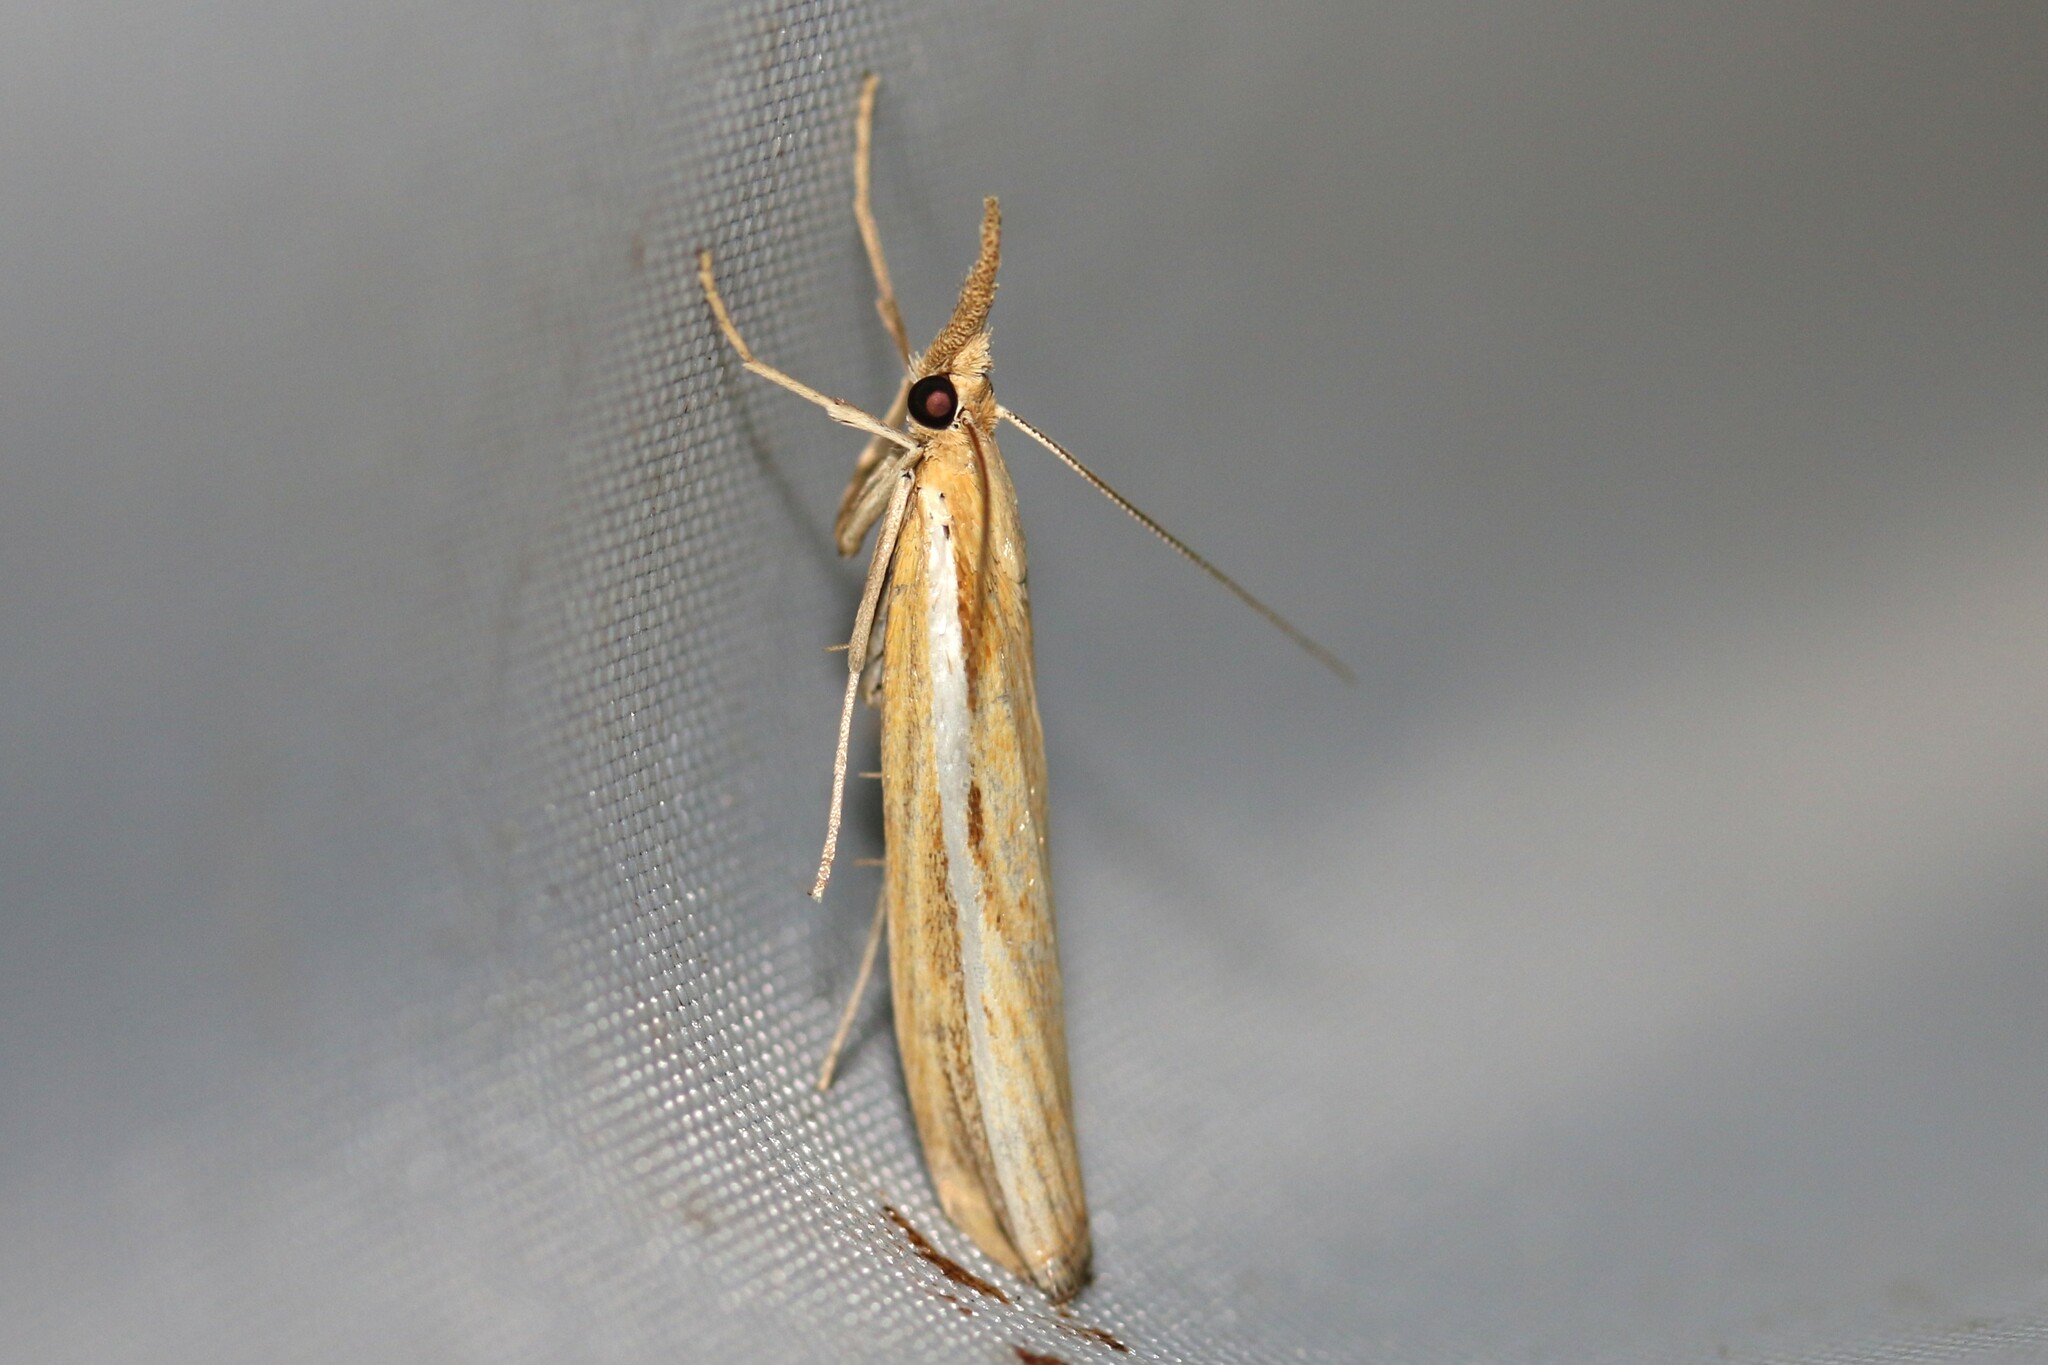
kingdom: Animalia
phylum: Arthropoda
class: Insecta
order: Lepidoptera
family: Crambidae
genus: Agriphila
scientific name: Agriphila tristellus
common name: Common grass-veneer
